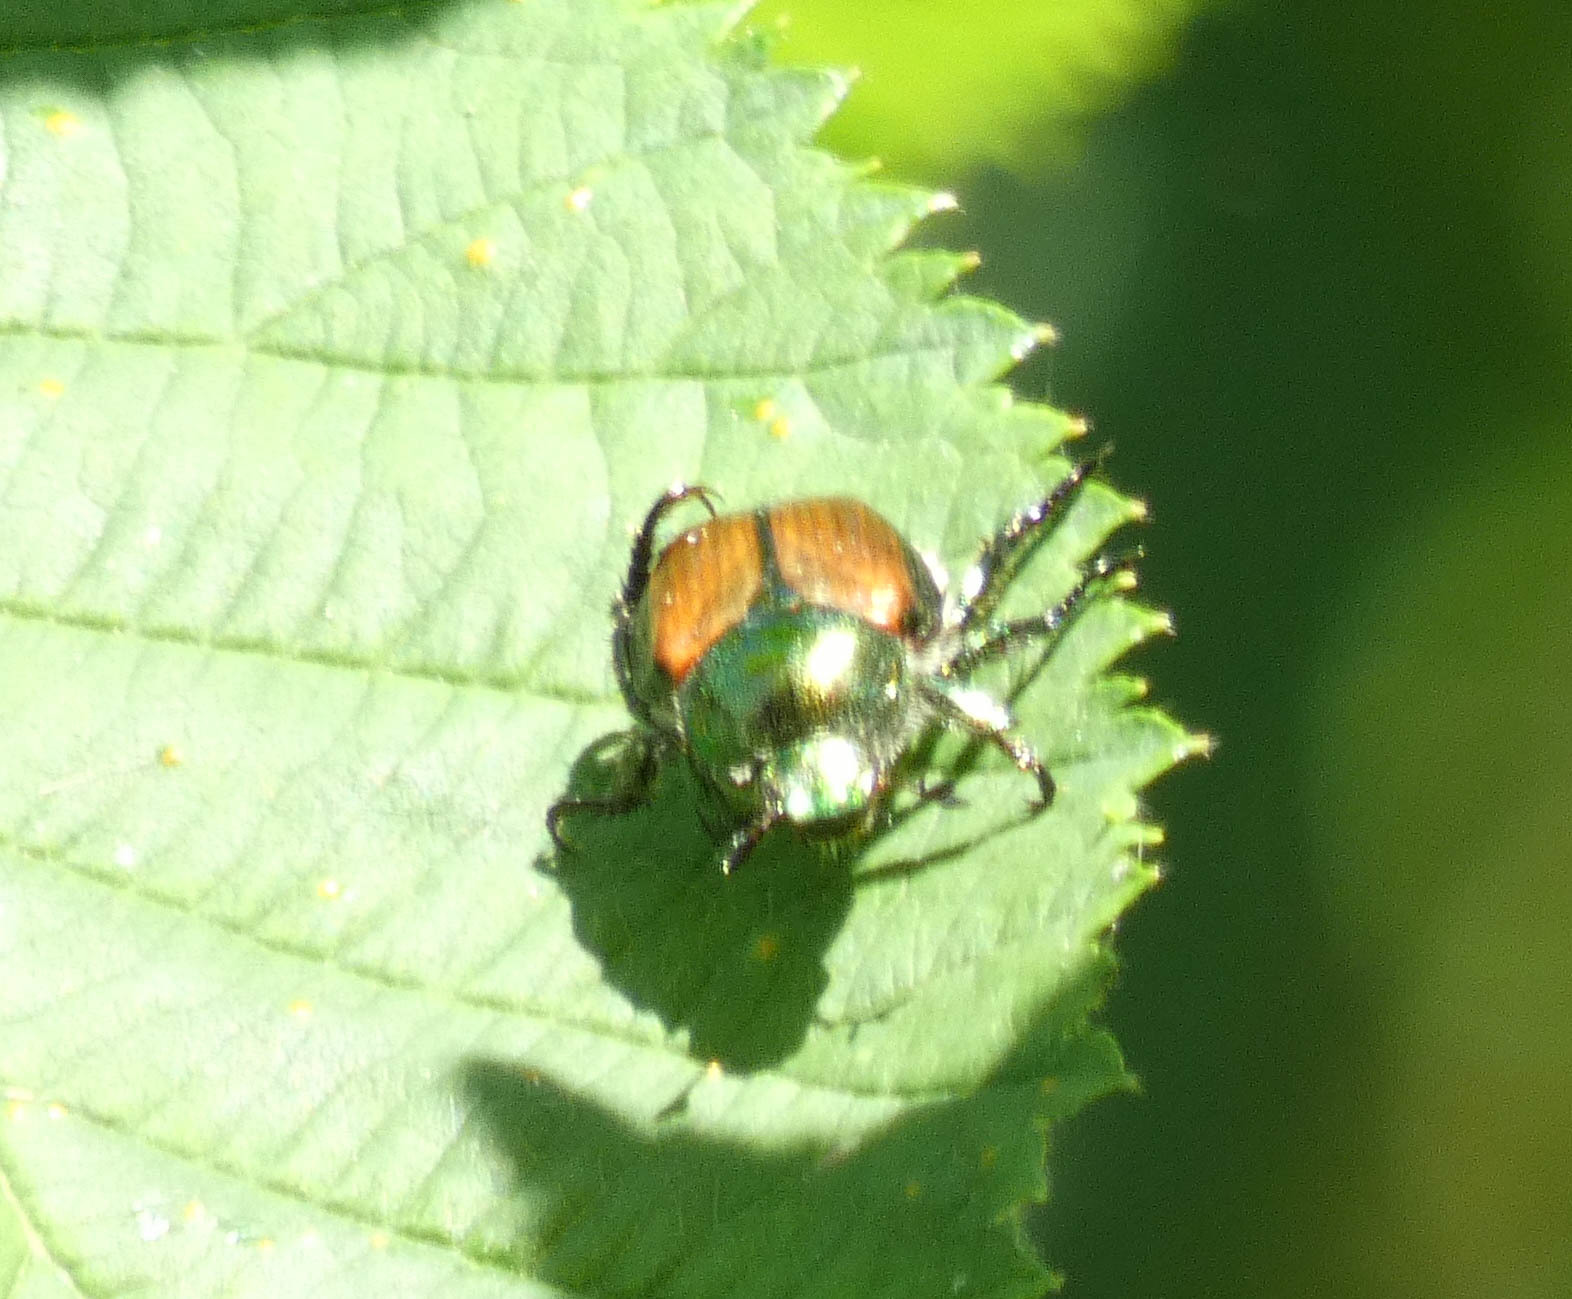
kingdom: Animalia
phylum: Arthropoda
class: Insecta
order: Coleoptera
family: Scarabaeidae
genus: Popillia
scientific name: Popillia japonica
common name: Japanese beetle
